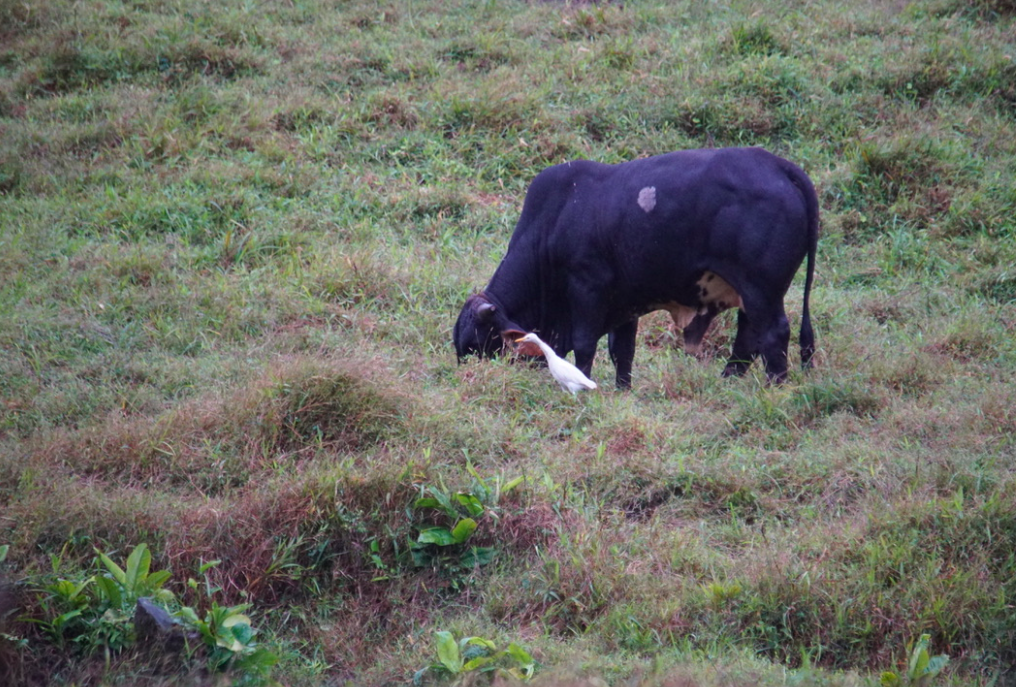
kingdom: Animalia
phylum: Chordata
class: Aves
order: Pelecaniformes
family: Ardeidae
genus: Bubulcus
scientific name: Bubulcus ibis
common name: Cattle egret
